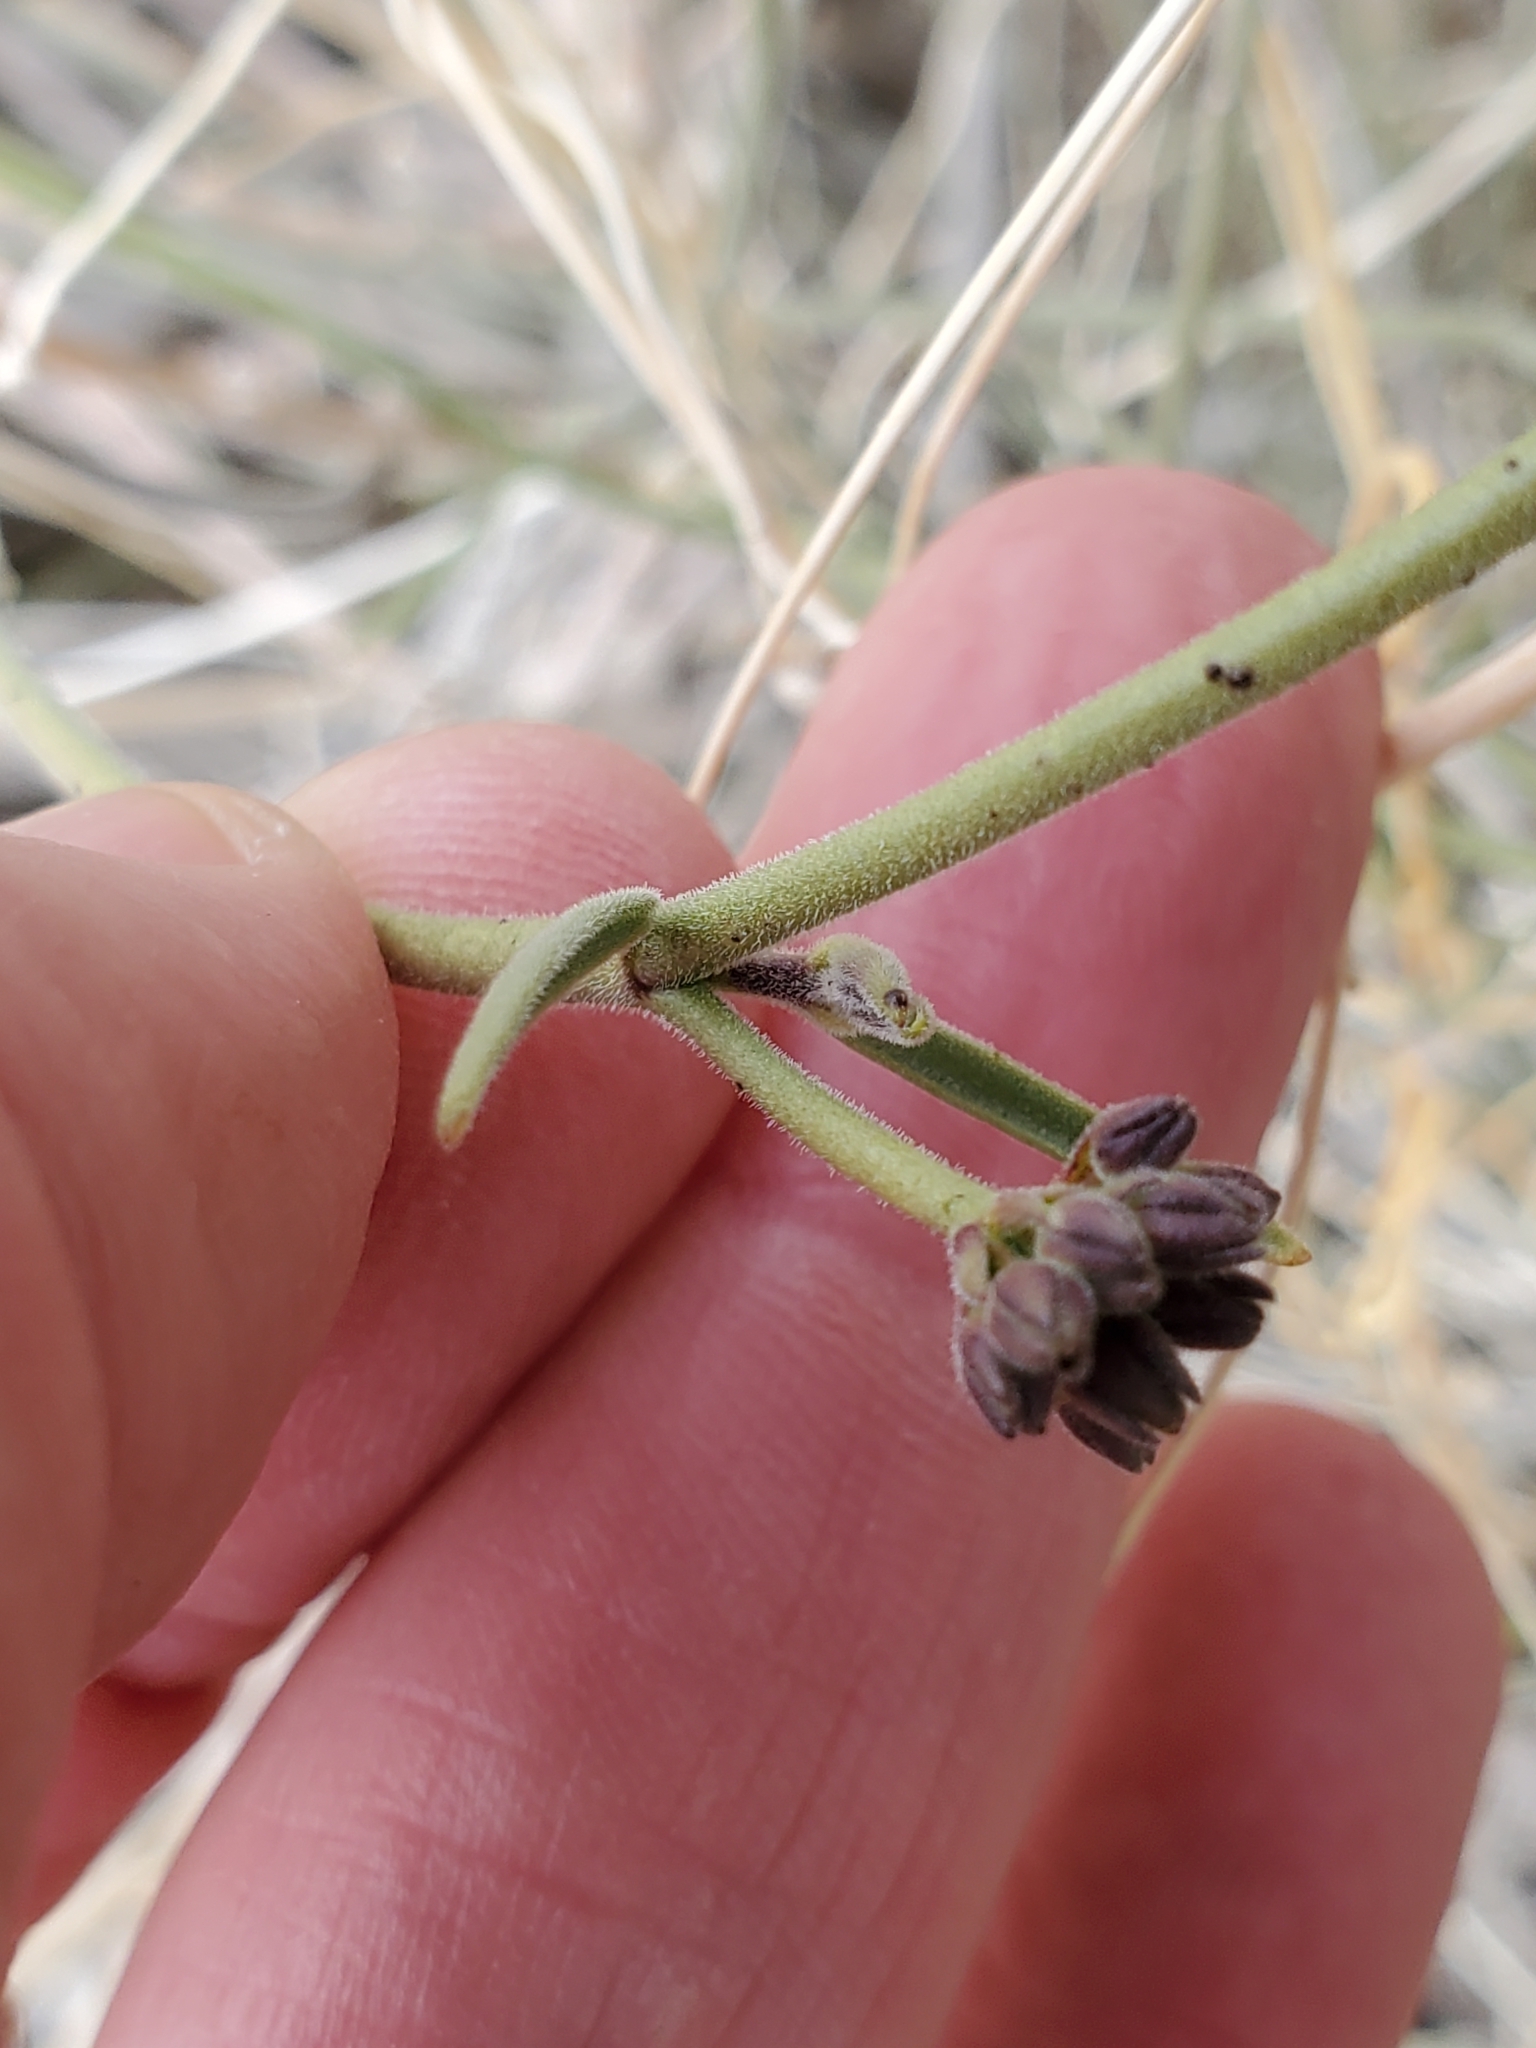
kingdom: Plantae
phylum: Tracheophyta
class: Magnoliopsida
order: Gentianales
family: Apocynaceae
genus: Funastrum
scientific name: Funastrum hirtellum
